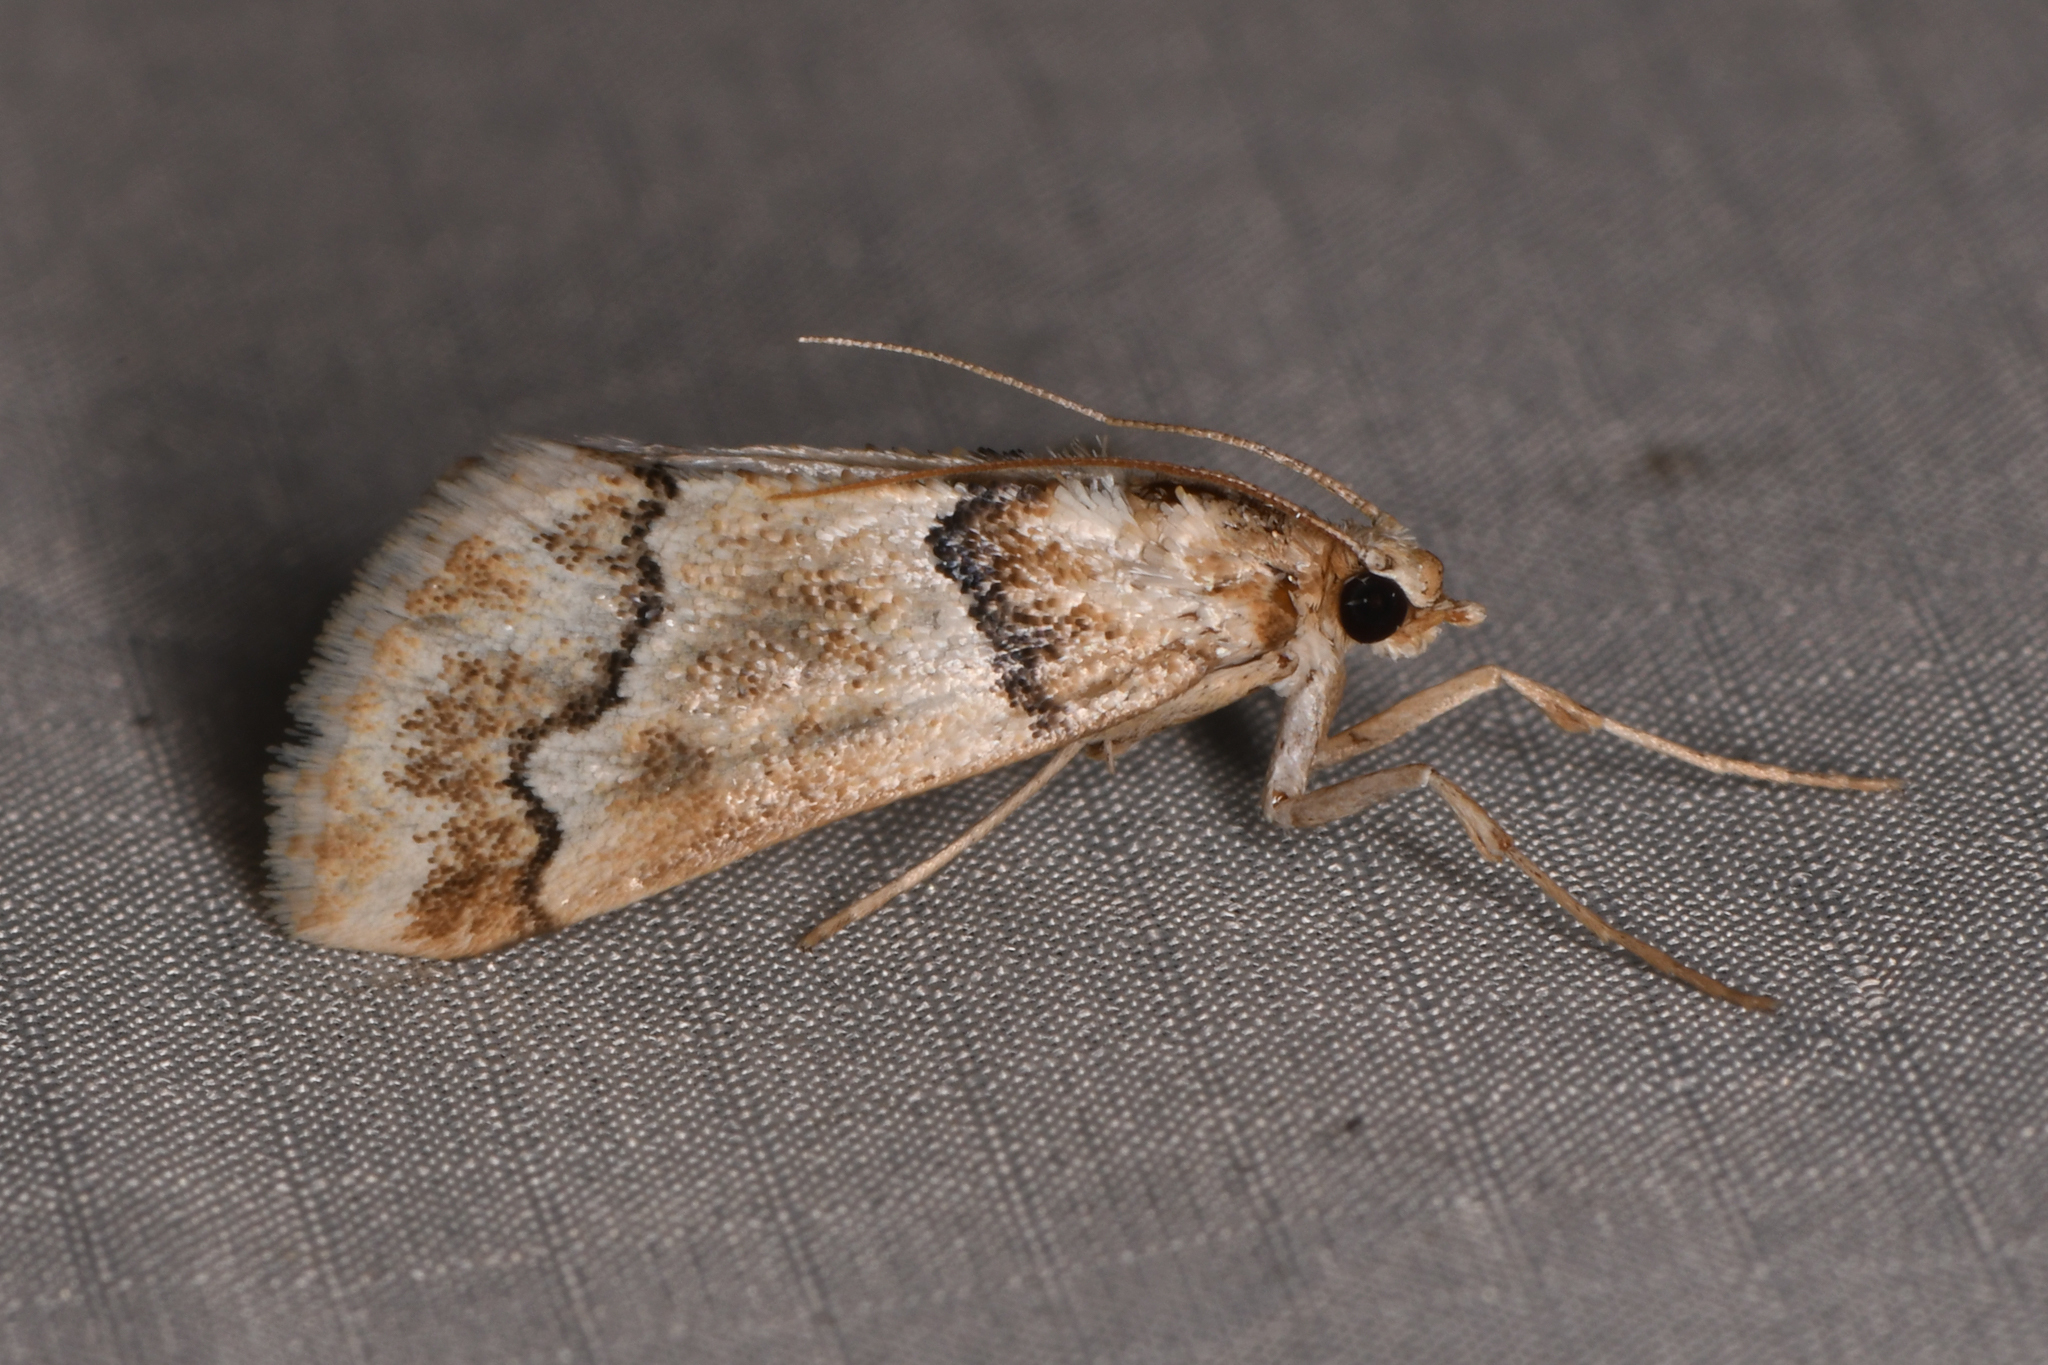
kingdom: Animalia
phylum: Arthropoda
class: Insecta
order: Lepidoptera
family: Crambidae
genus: Pseudoschinia
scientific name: Pseudoschinia elautalis
